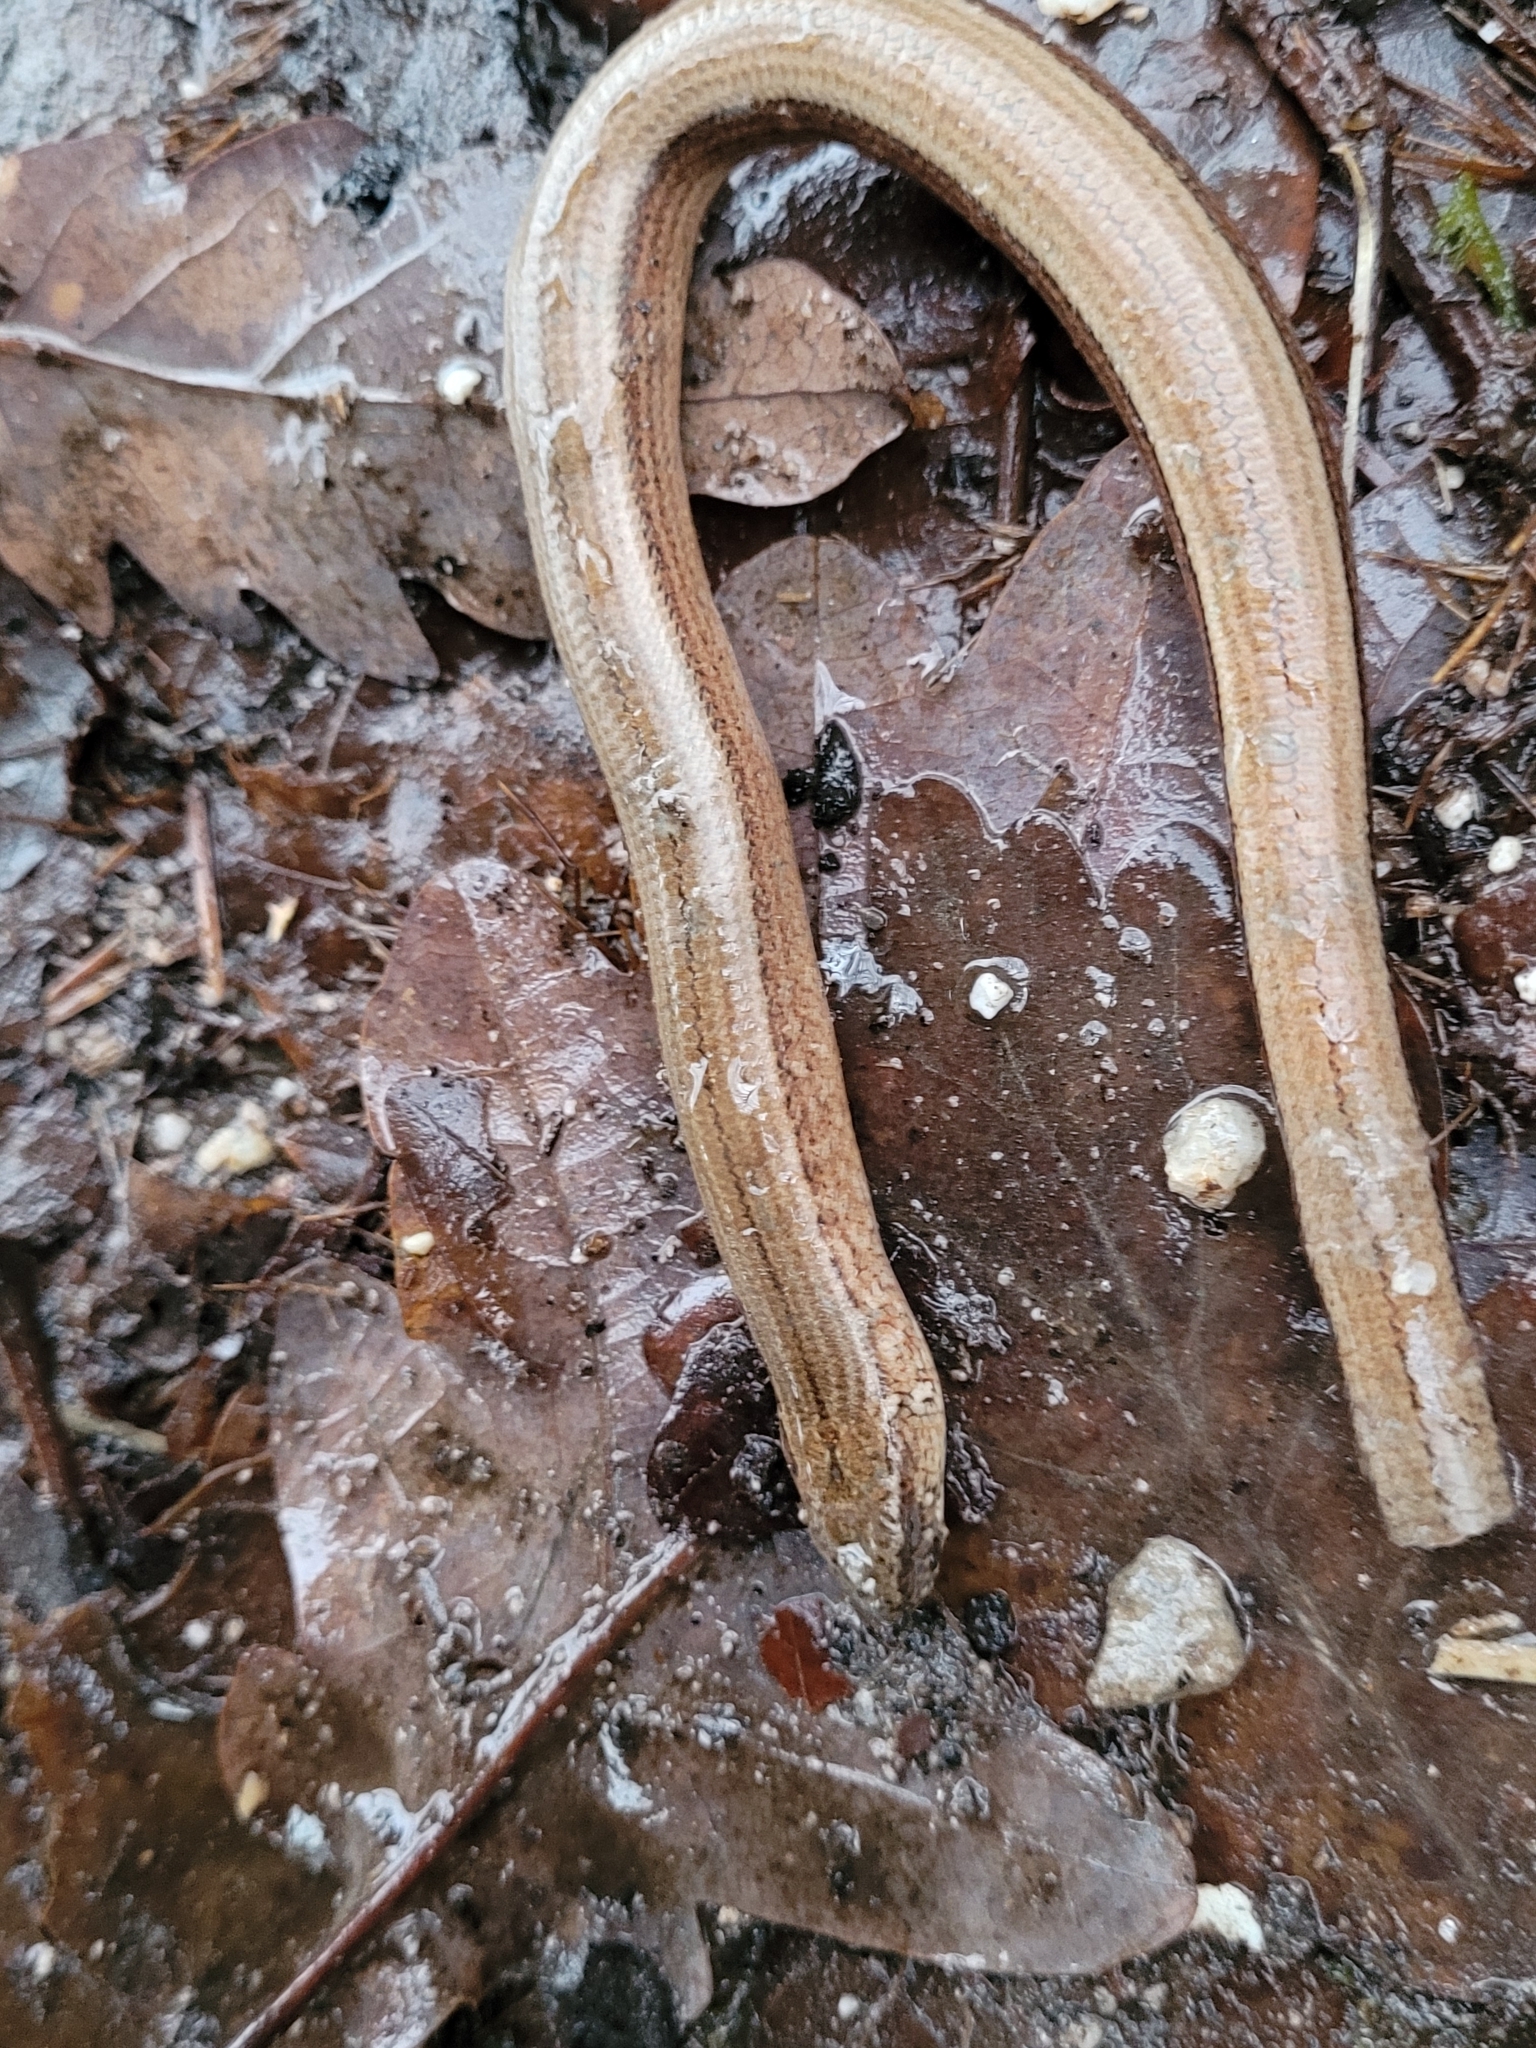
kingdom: Animalia
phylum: Chordata
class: Squamata
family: Anguidae
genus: Anguis
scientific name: Anguis fragilis
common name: Slow worm
